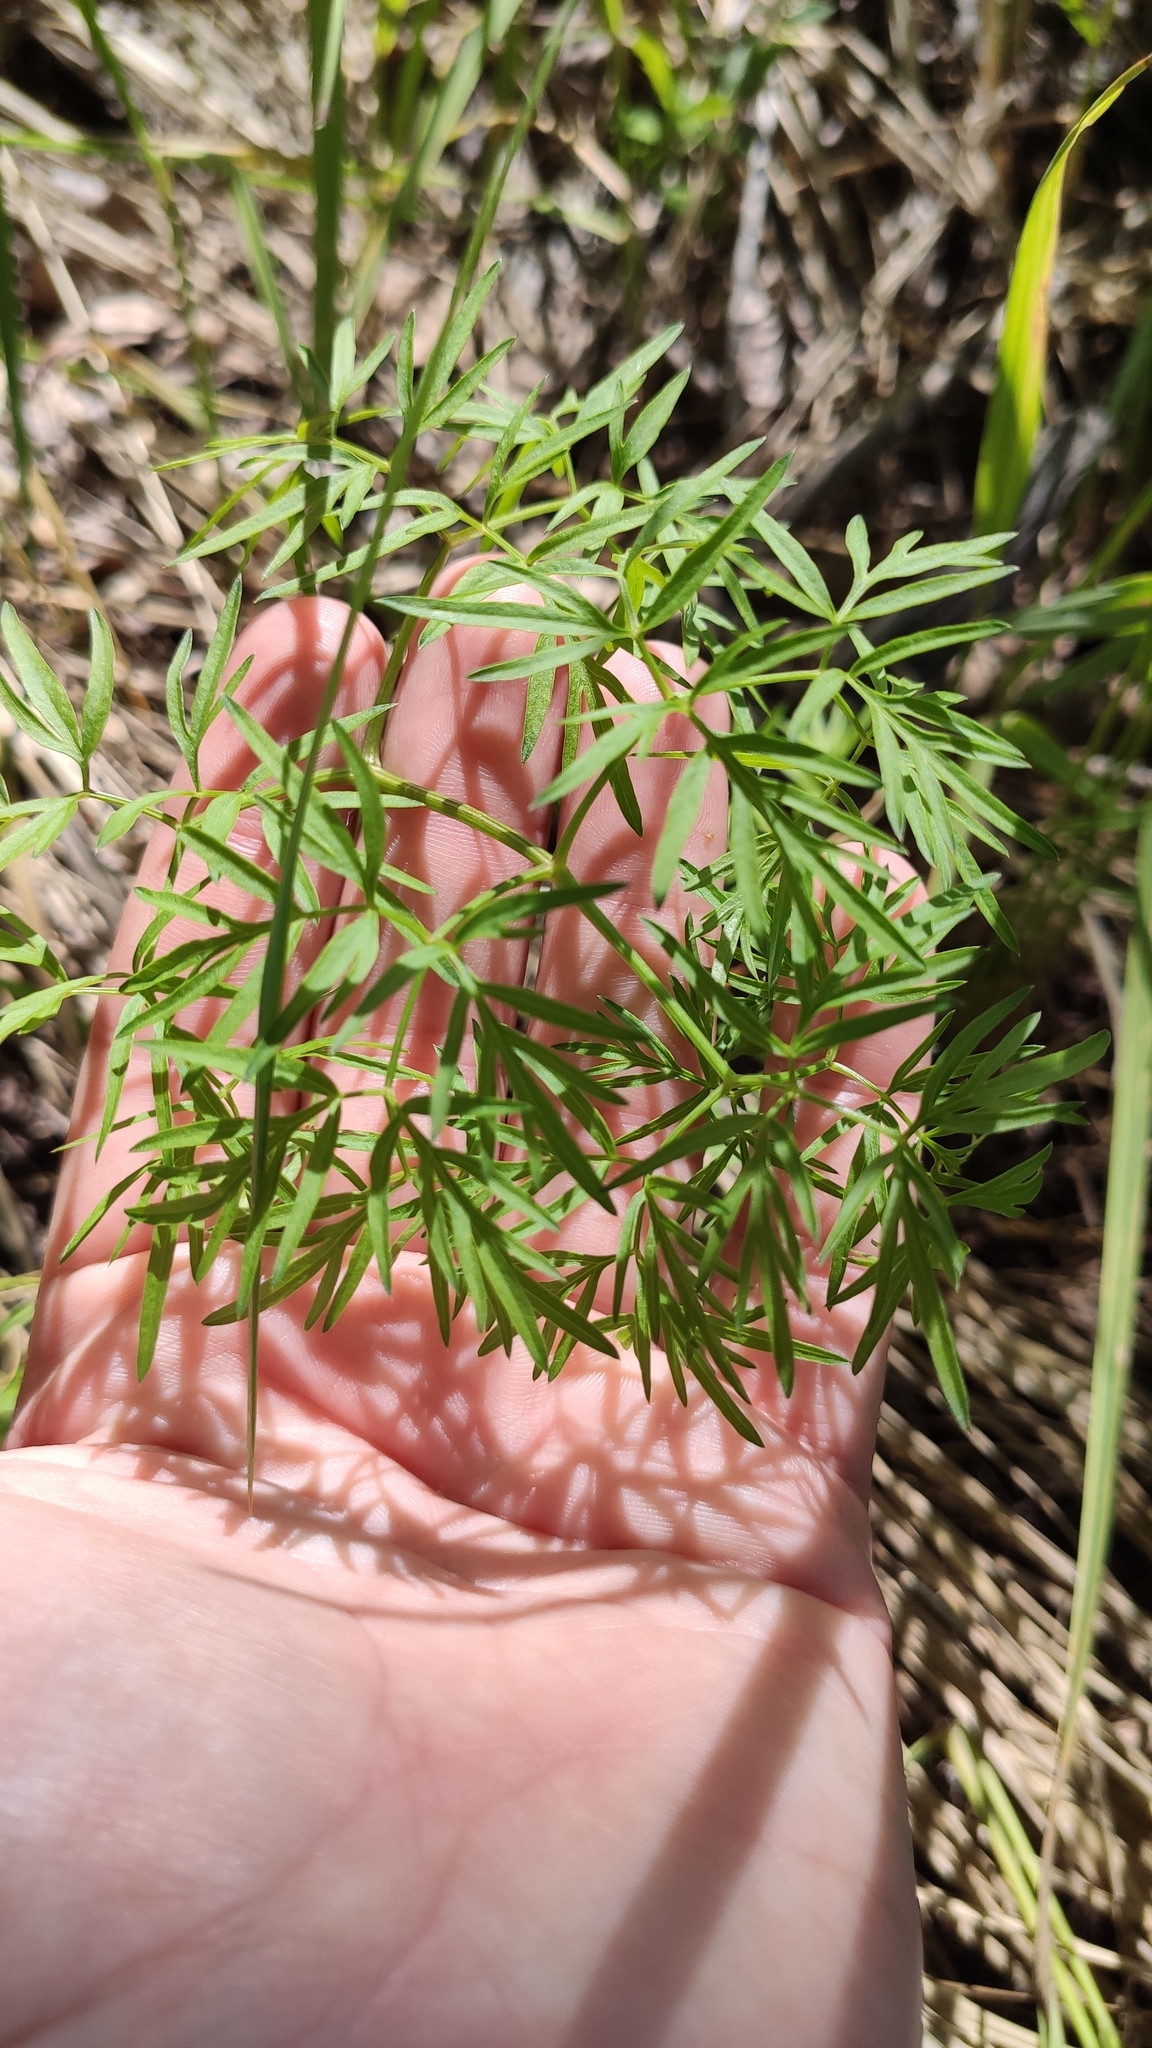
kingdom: Plantae
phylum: Tracheophyta
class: Magnoliopsida
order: Apiales
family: Apiaceae
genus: Cenolophium
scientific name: Cenolophium fischeri
